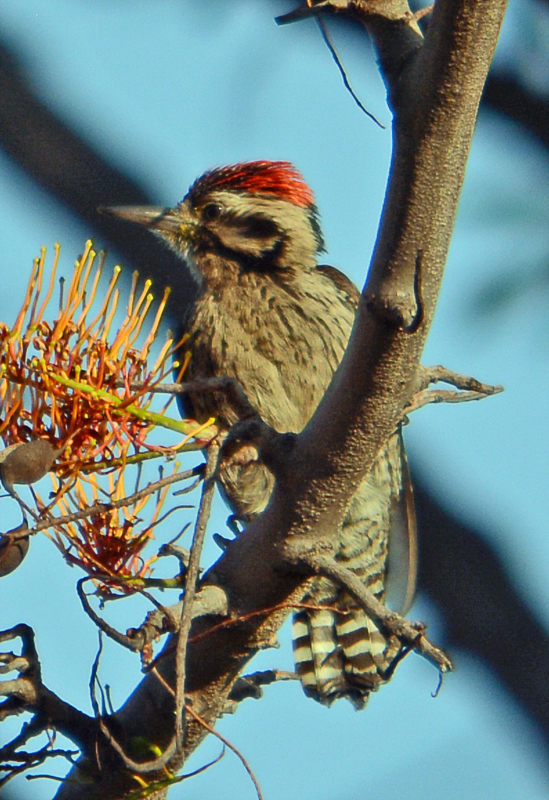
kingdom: Animalia
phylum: Chordata
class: Aves
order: Piciformes
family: Picidae
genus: Dryobates
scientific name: Dryobates scalaris
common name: Ladder-backed woodpecker
